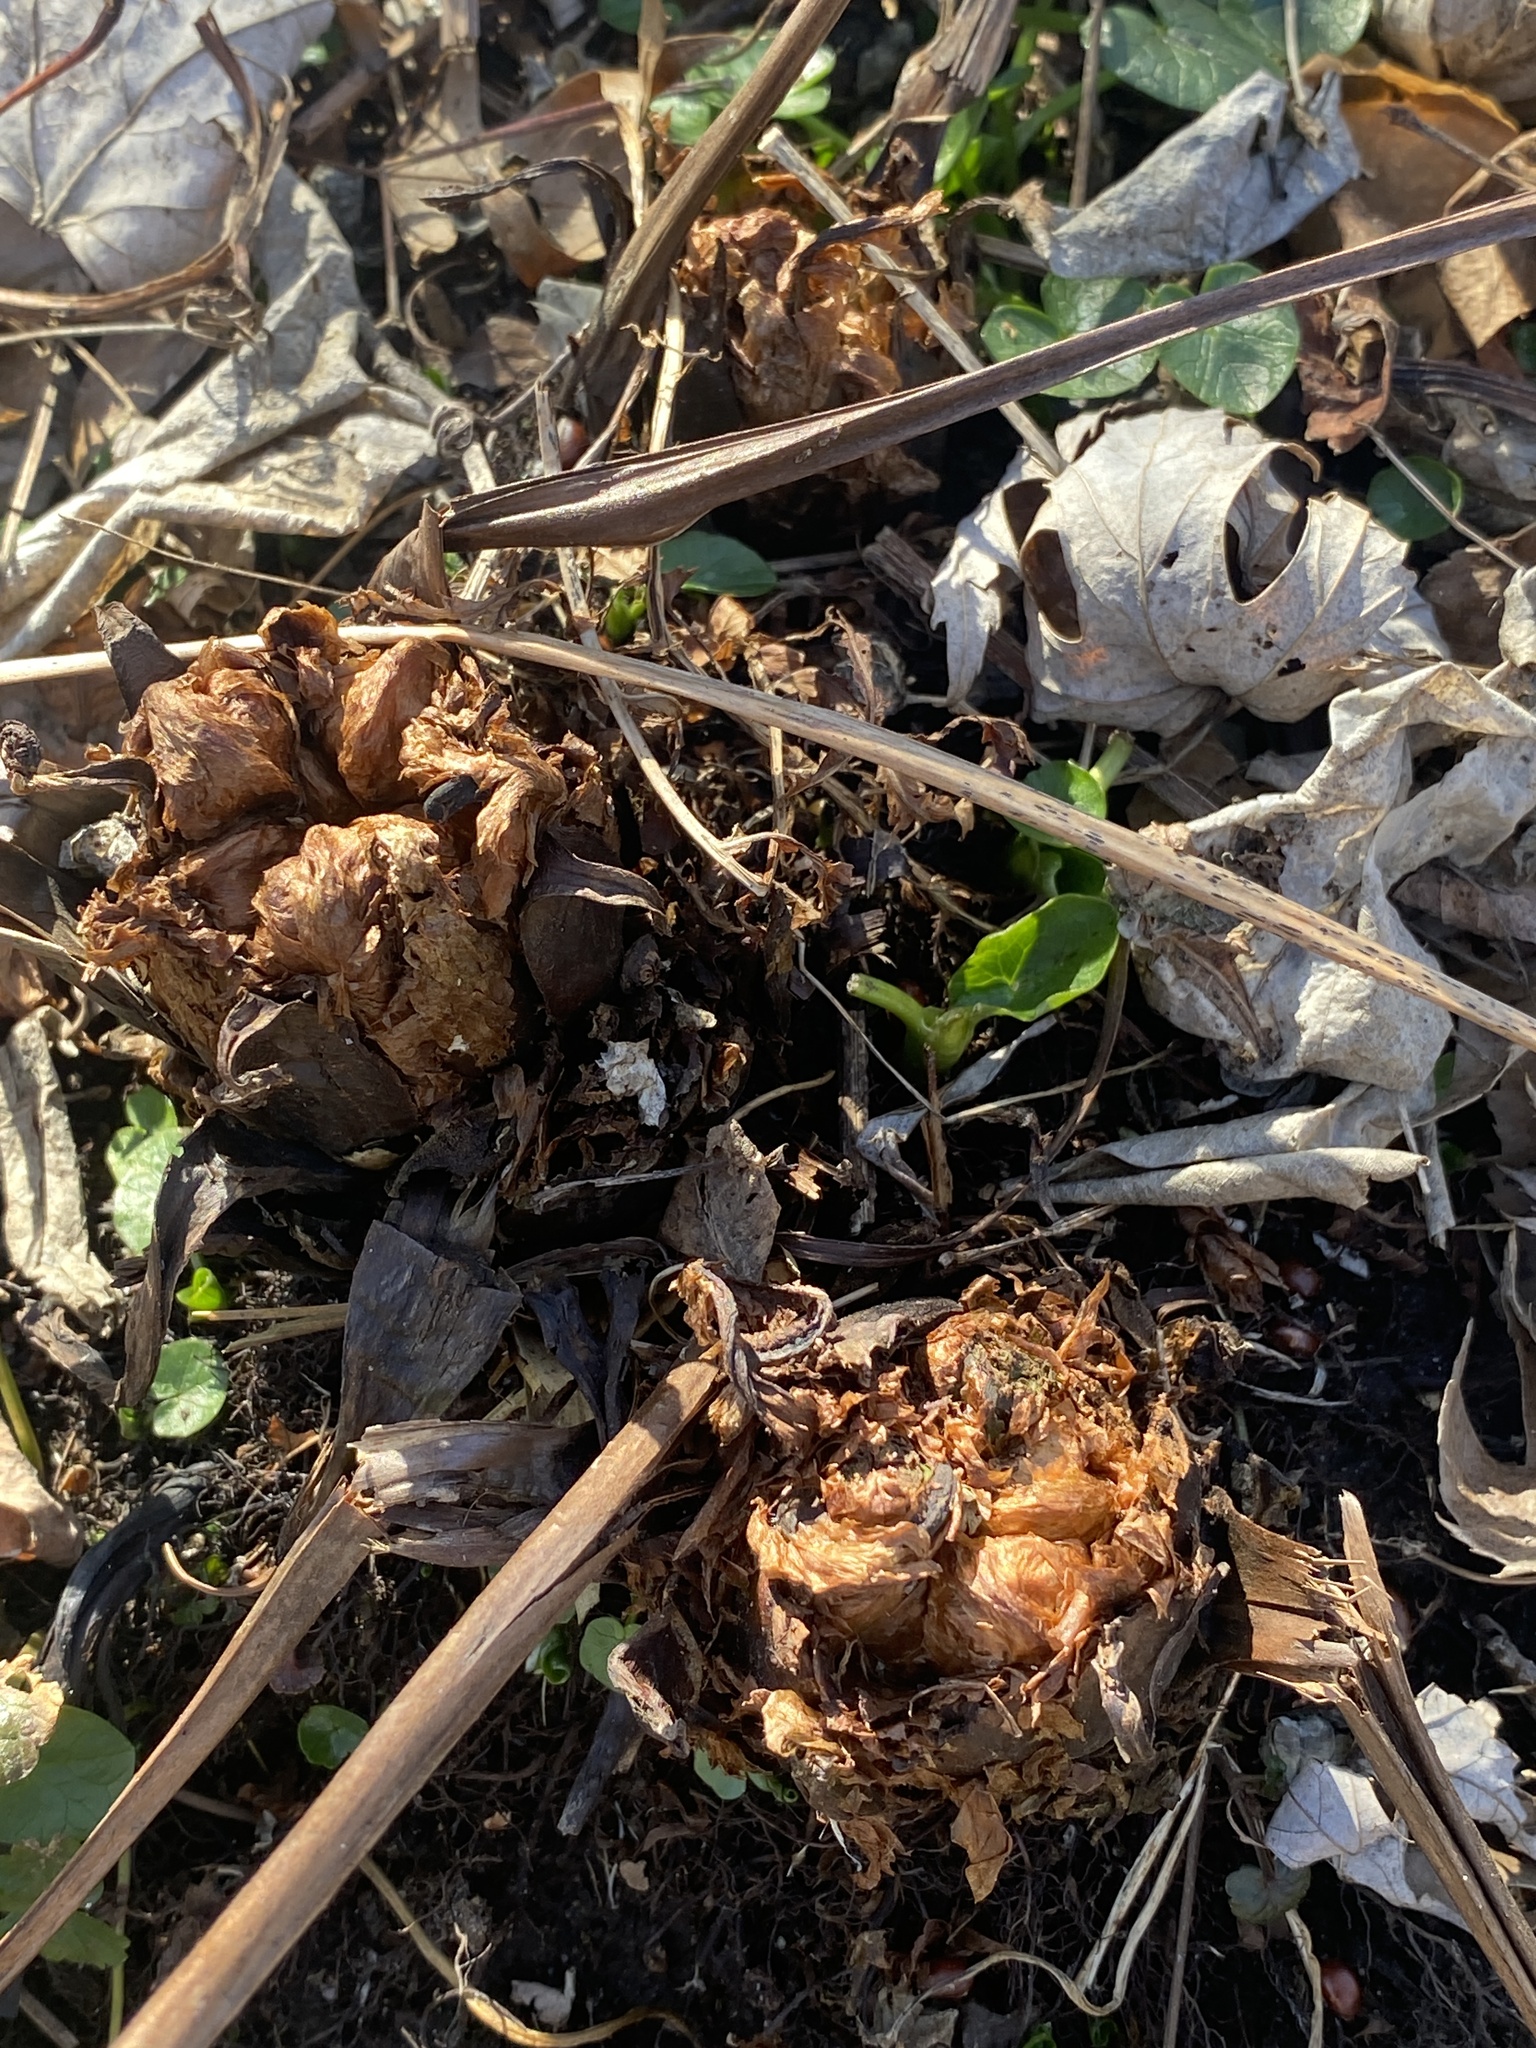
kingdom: Plantae
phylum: Tracheophyta
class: Polypodiopsida
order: Polypodiales
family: Onocleaceae
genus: Matteuccia
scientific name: Matteuccia struthiopteris
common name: Ostrich fern
